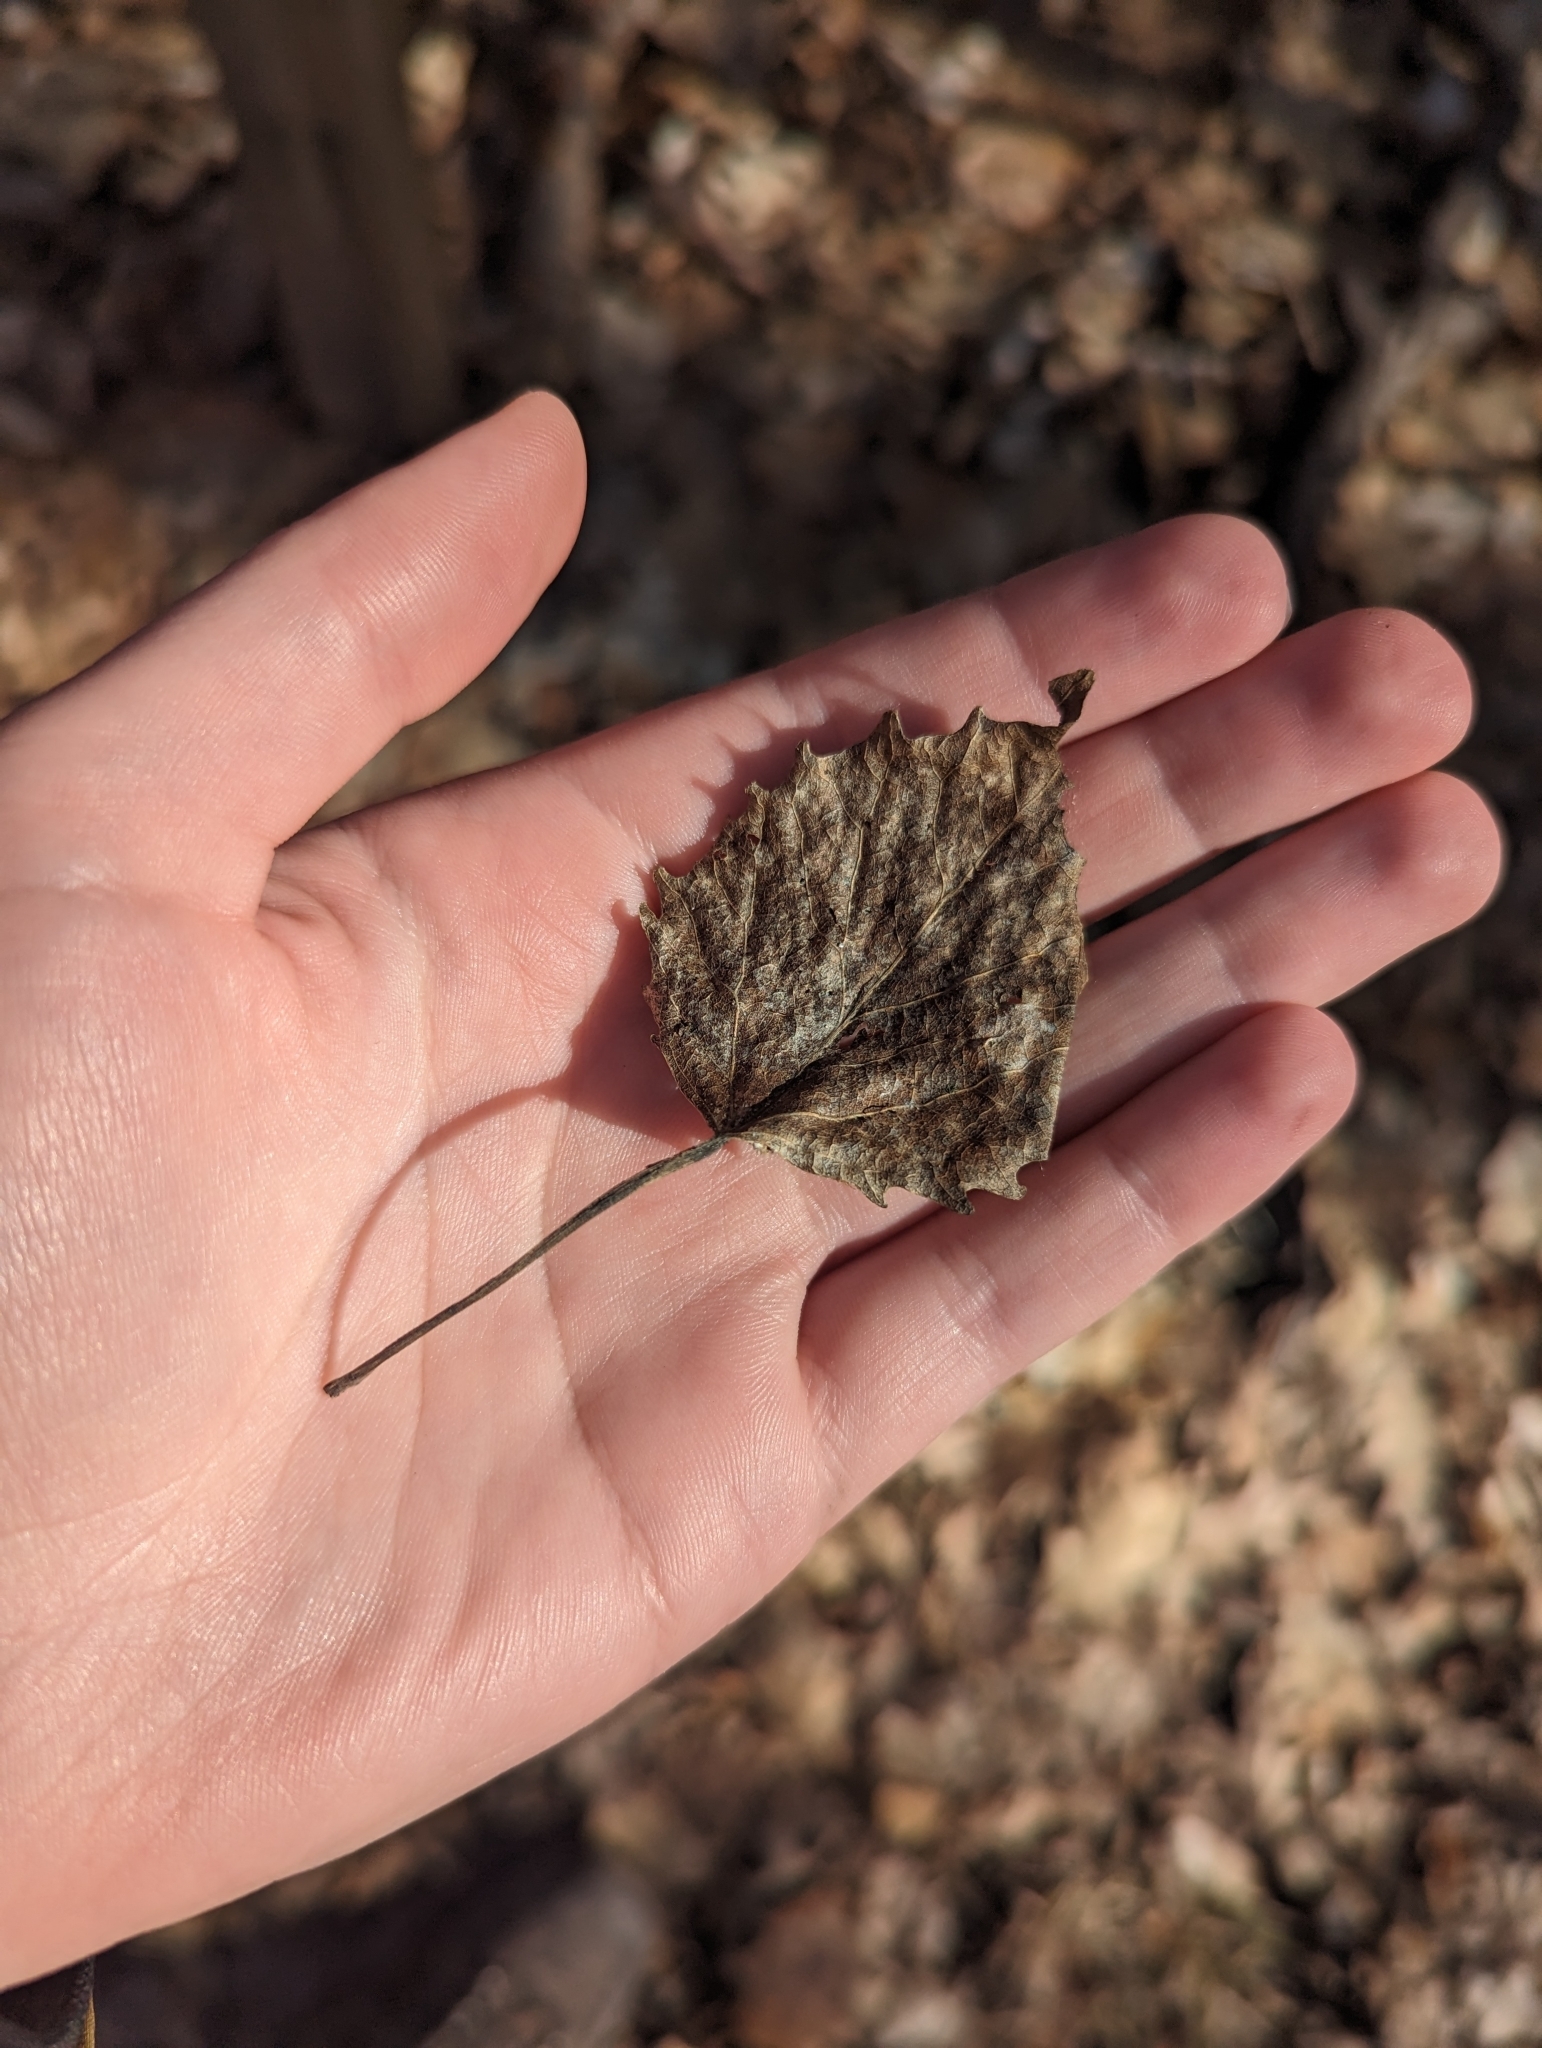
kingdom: Plantae
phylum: Tracheophyta
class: Magnoliopsida
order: Malpighiales
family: Salicaceae
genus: Populus
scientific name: Populus grandidentata
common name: Bigtooth aspen
